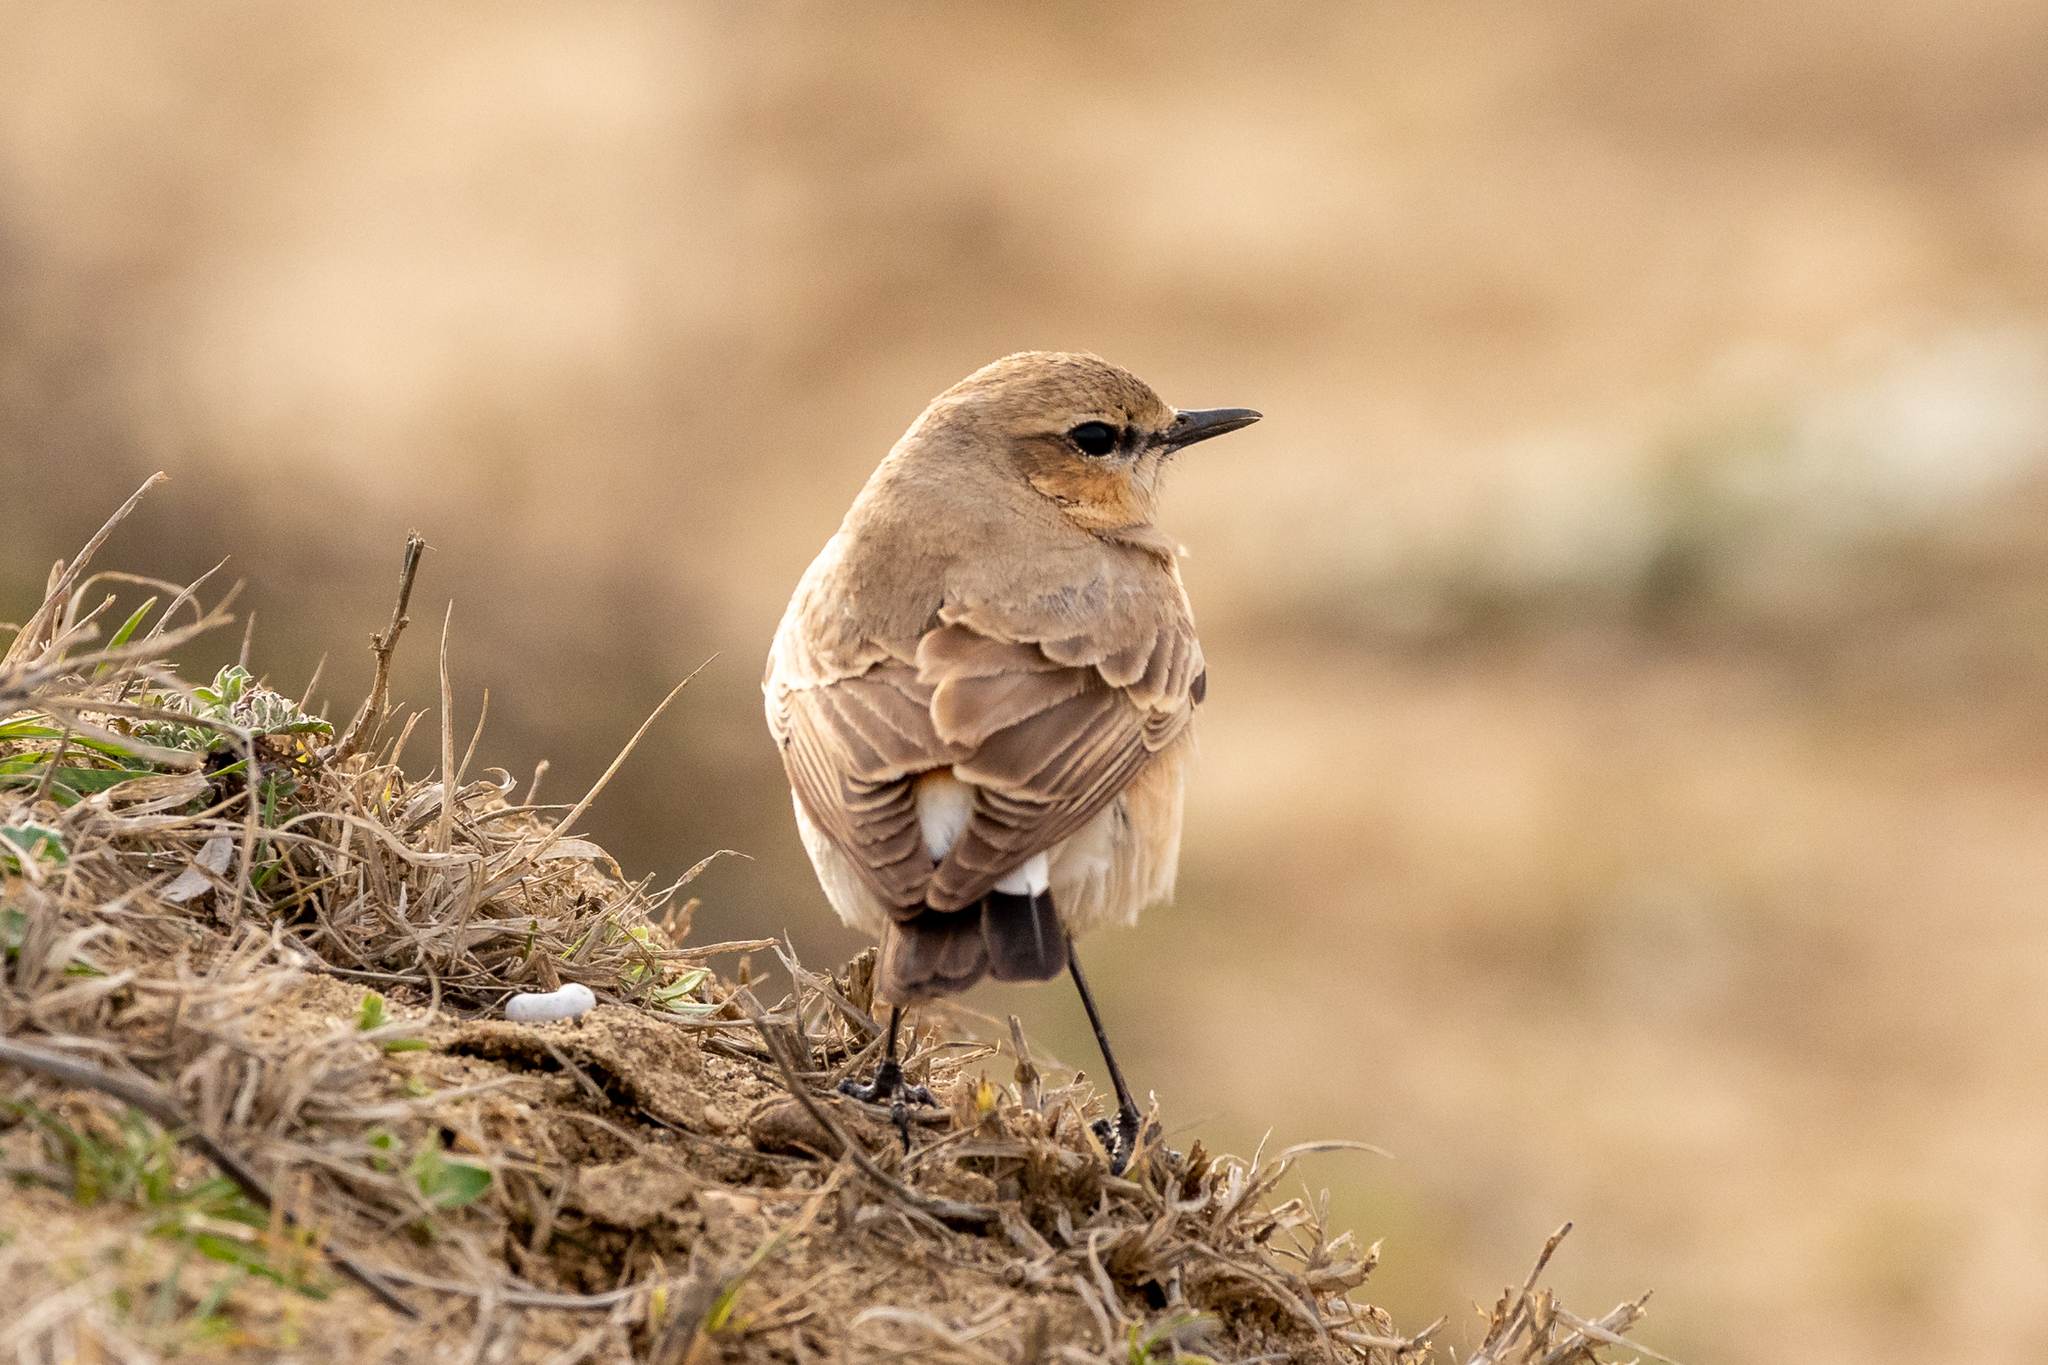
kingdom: Animalia
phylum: Chordata
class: Aves
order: Passeriformes
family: Muscicapidae
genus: Oenanthe
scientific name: Oenanthe isabellina
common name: Isabelline wheatear
